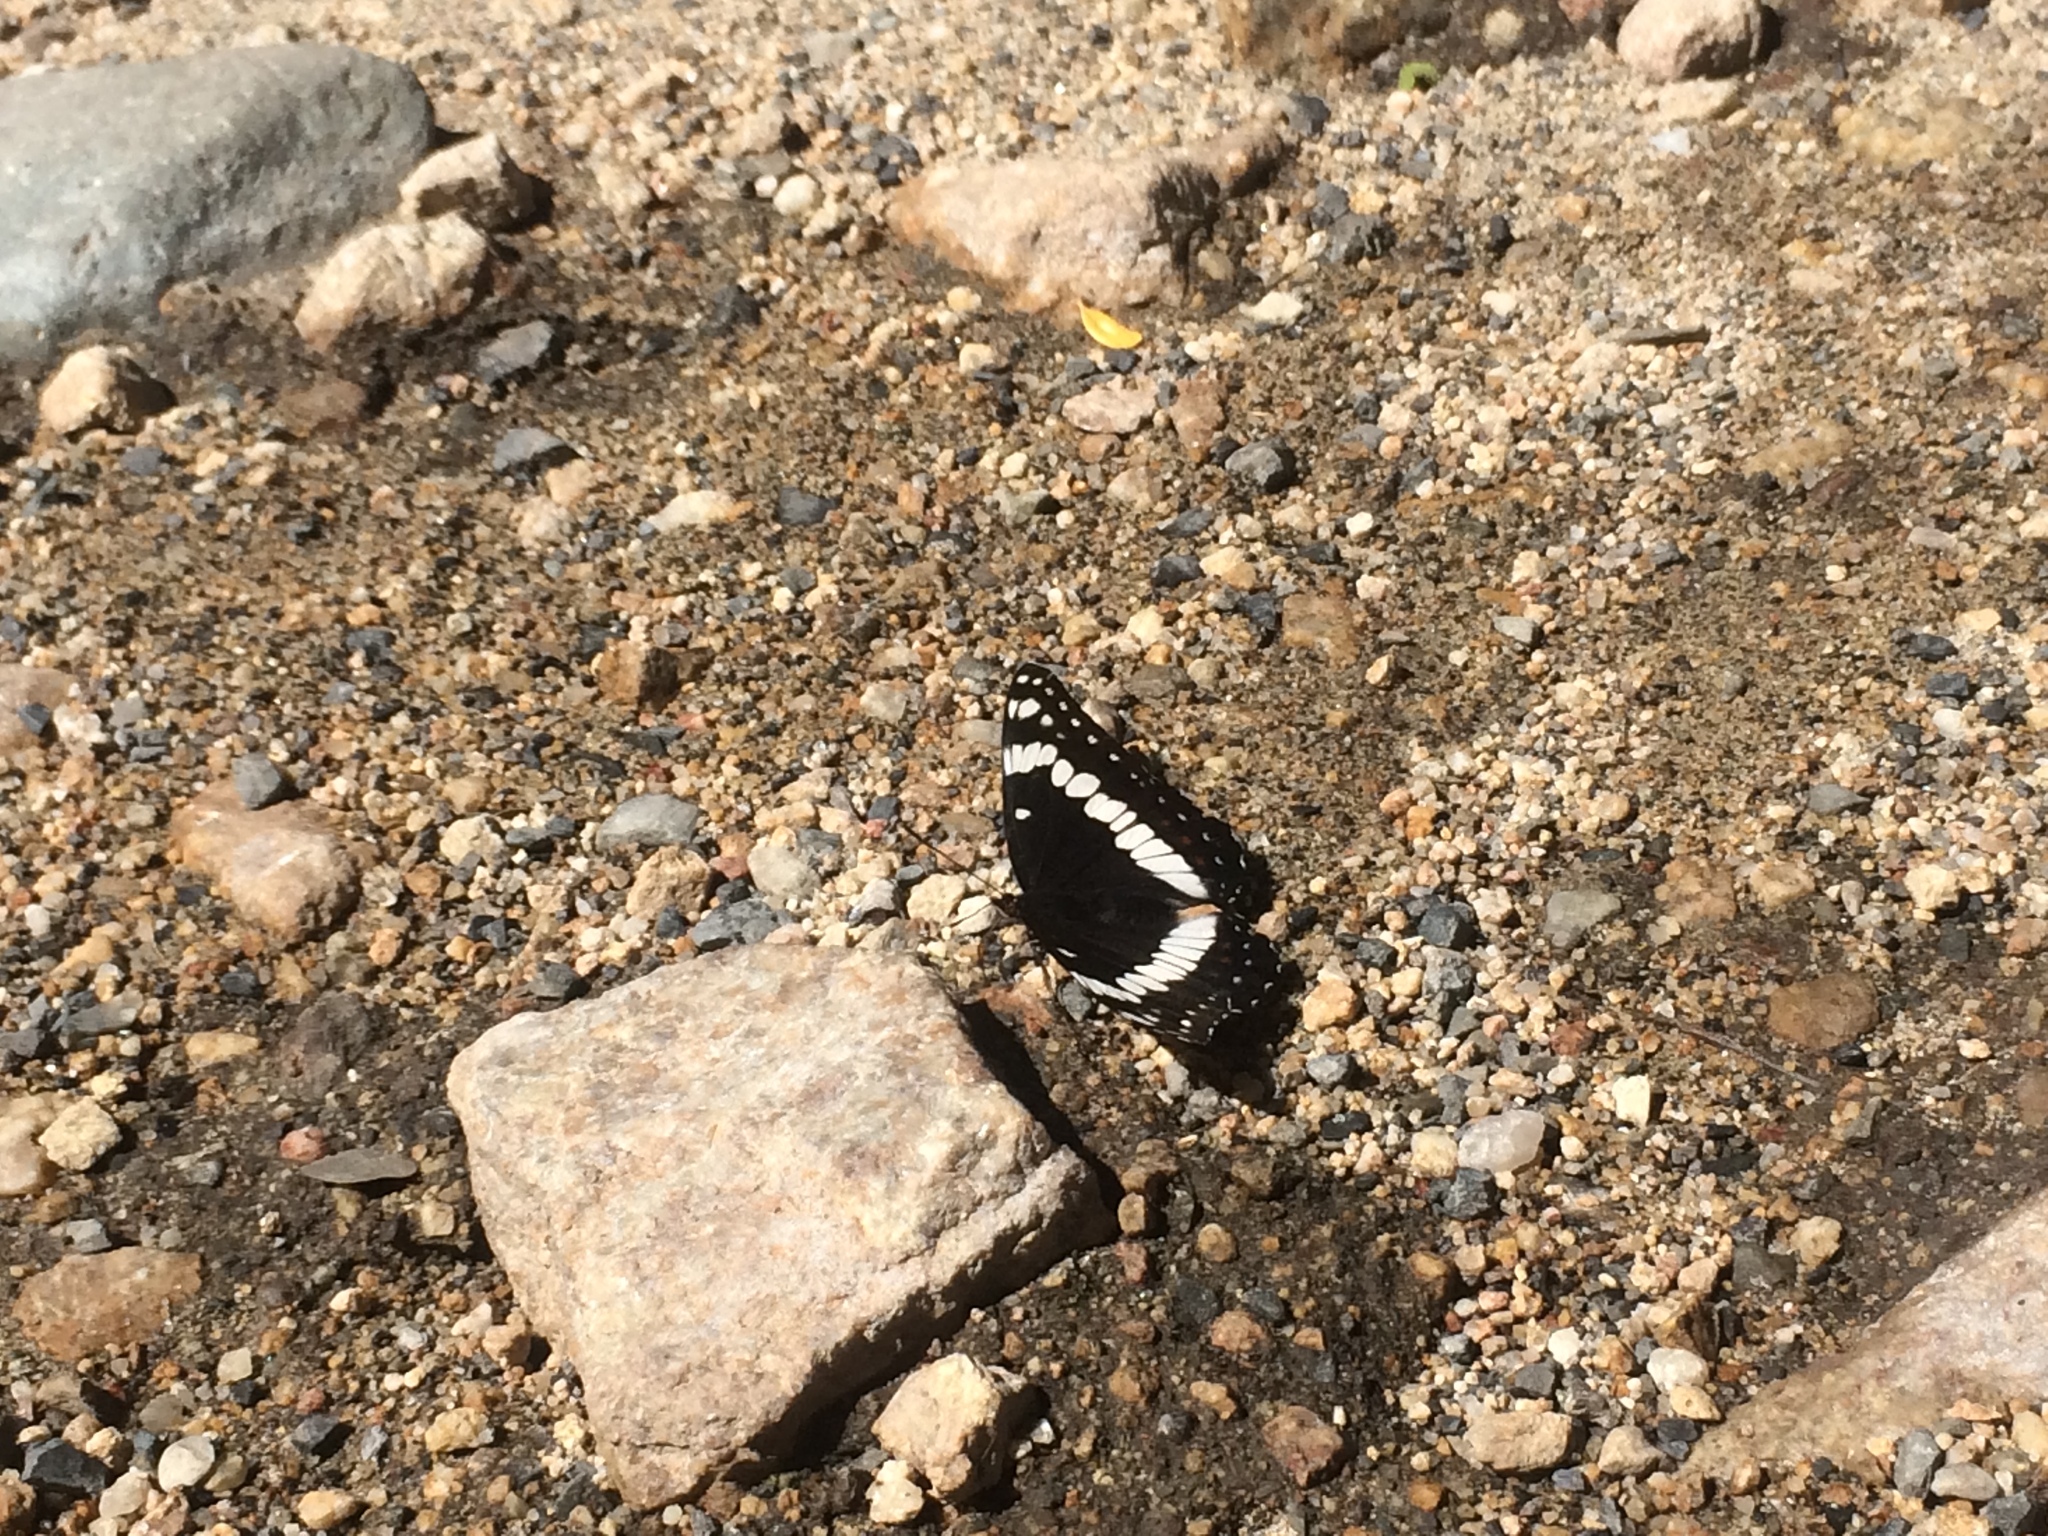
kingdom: Animalia
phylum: Arthropoda
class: Insecta
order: Lepidoptera
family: Nymphalidae
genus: Limenitis
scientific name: Limenitis weidemeyerii
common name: Weidemeyer's admiral
